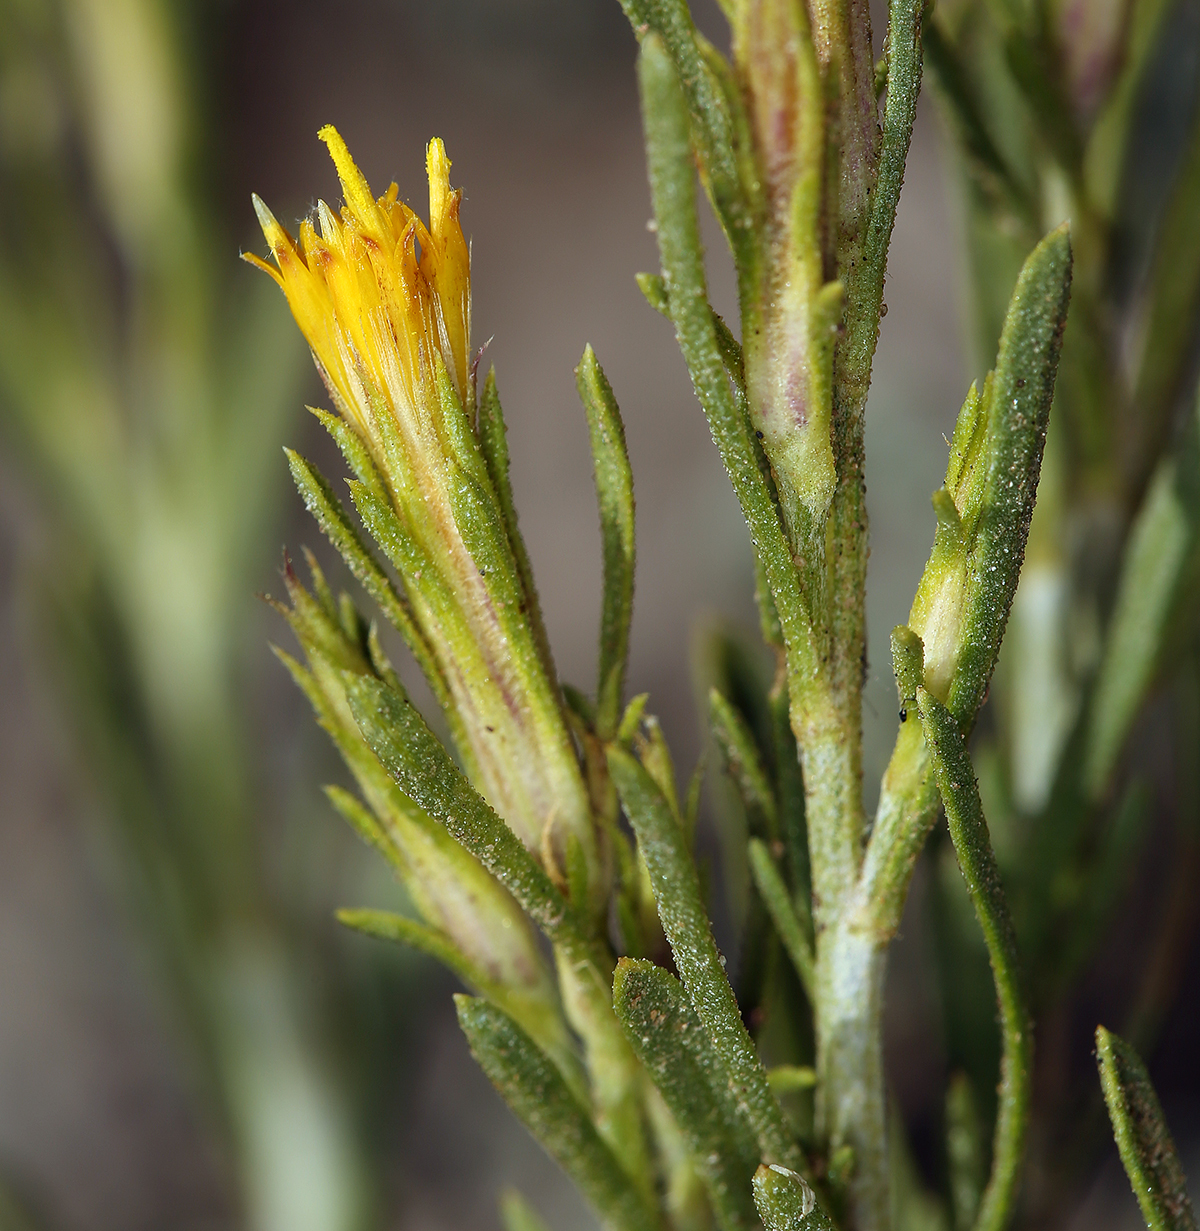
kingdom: Plantae
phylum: Tracheophyta
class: Magnoliopsida
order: Asterales
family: Asteraceae
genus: Ericameria
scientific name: Ericameria parryi
